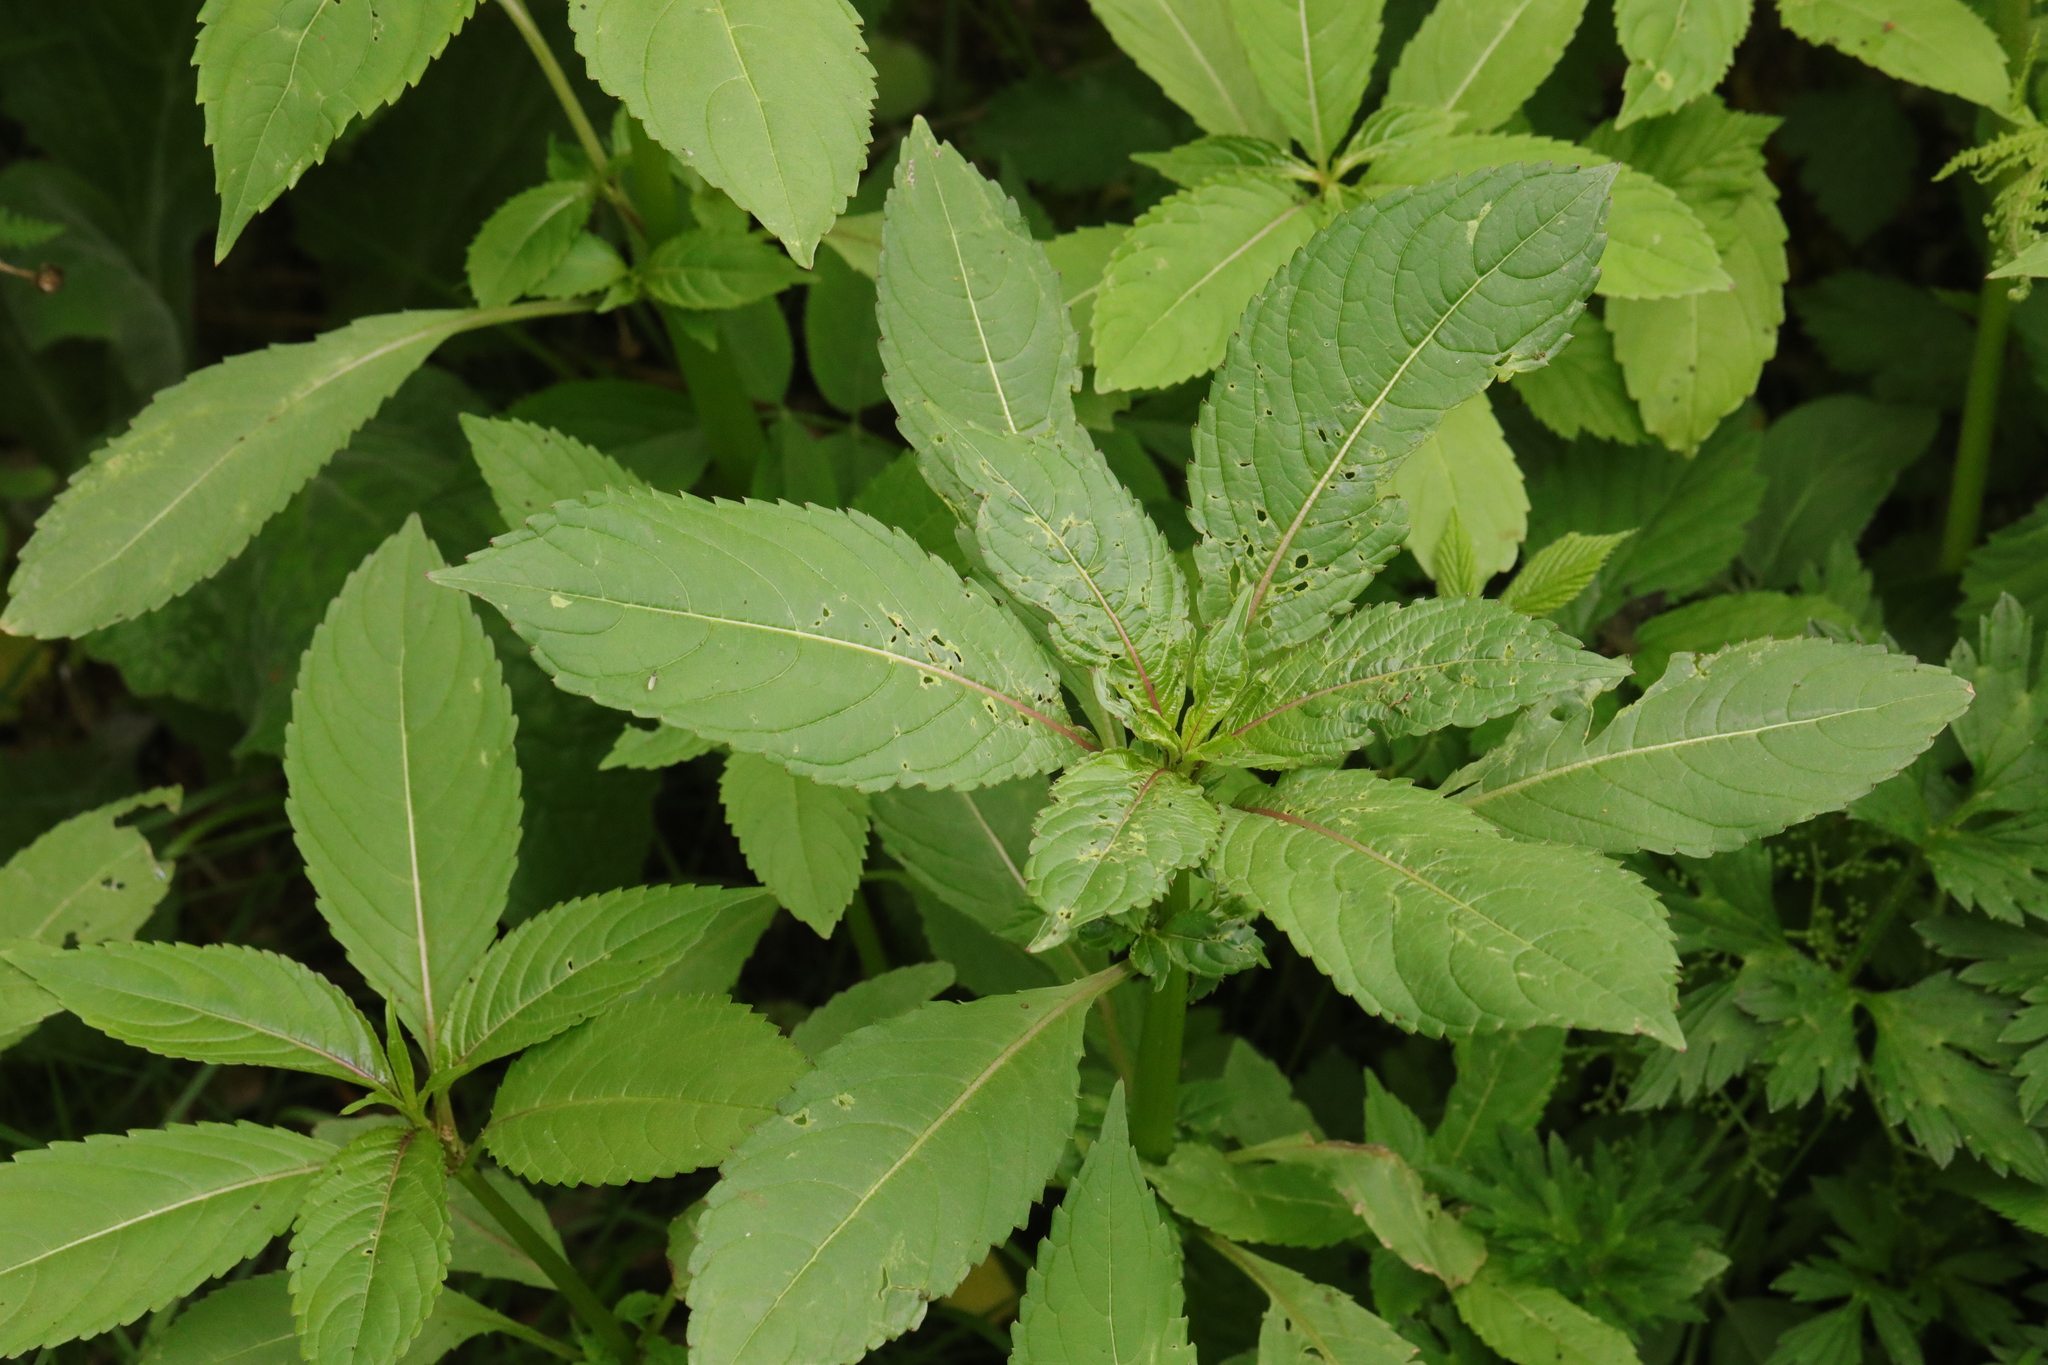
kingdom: Plantae
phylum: Tracheophyta
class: Magnoliopsida
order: Ericales
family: Balsaminaceae
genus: Impatiens
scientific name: Impatiens glandulifera
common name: Himalayan balsam
